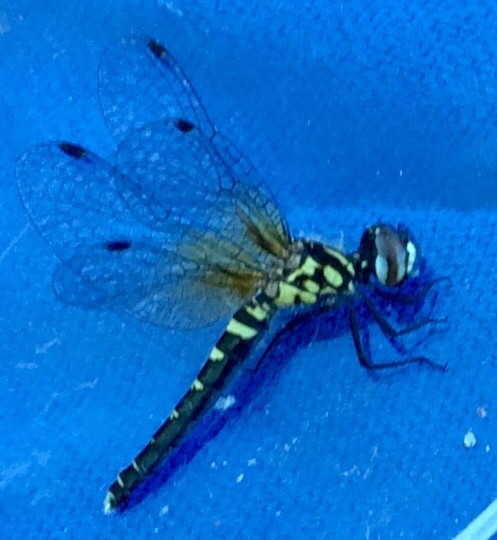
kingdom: Animalia
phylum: Arthropoda
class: Insecta
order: Odonata
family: Libellulidae
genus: Nannothemis
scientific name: Nannothemis bella
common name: Elfin skimmer
